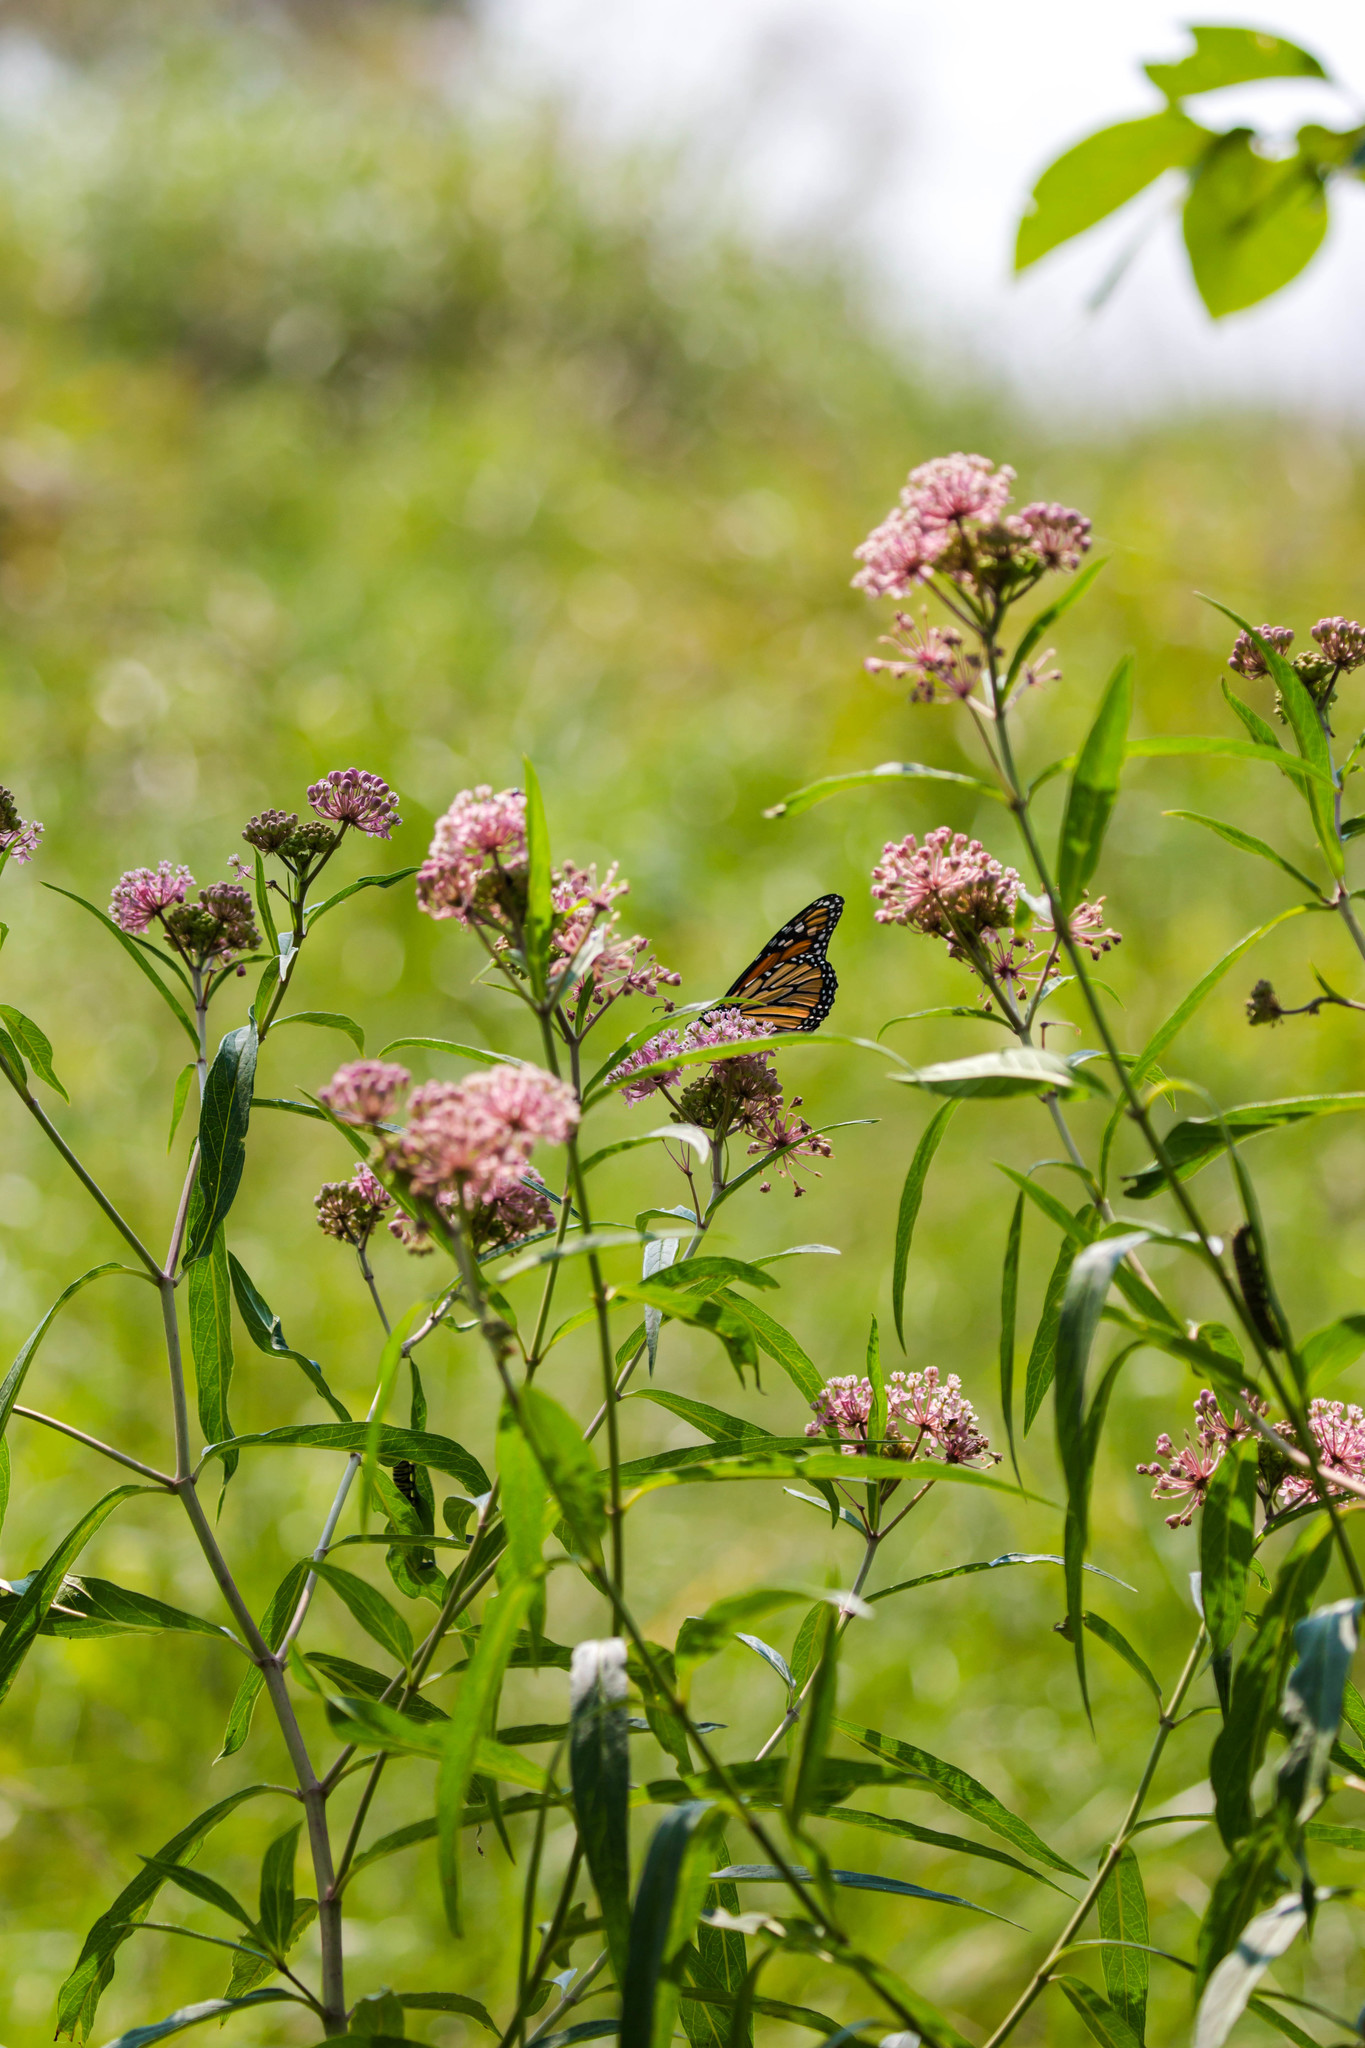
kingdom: Animalia
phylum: Arthropoda
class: Insecta
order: Lepidoptera
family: Nymphalidae
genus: Danaus
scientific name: Danaus plexippus
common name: Monarch
